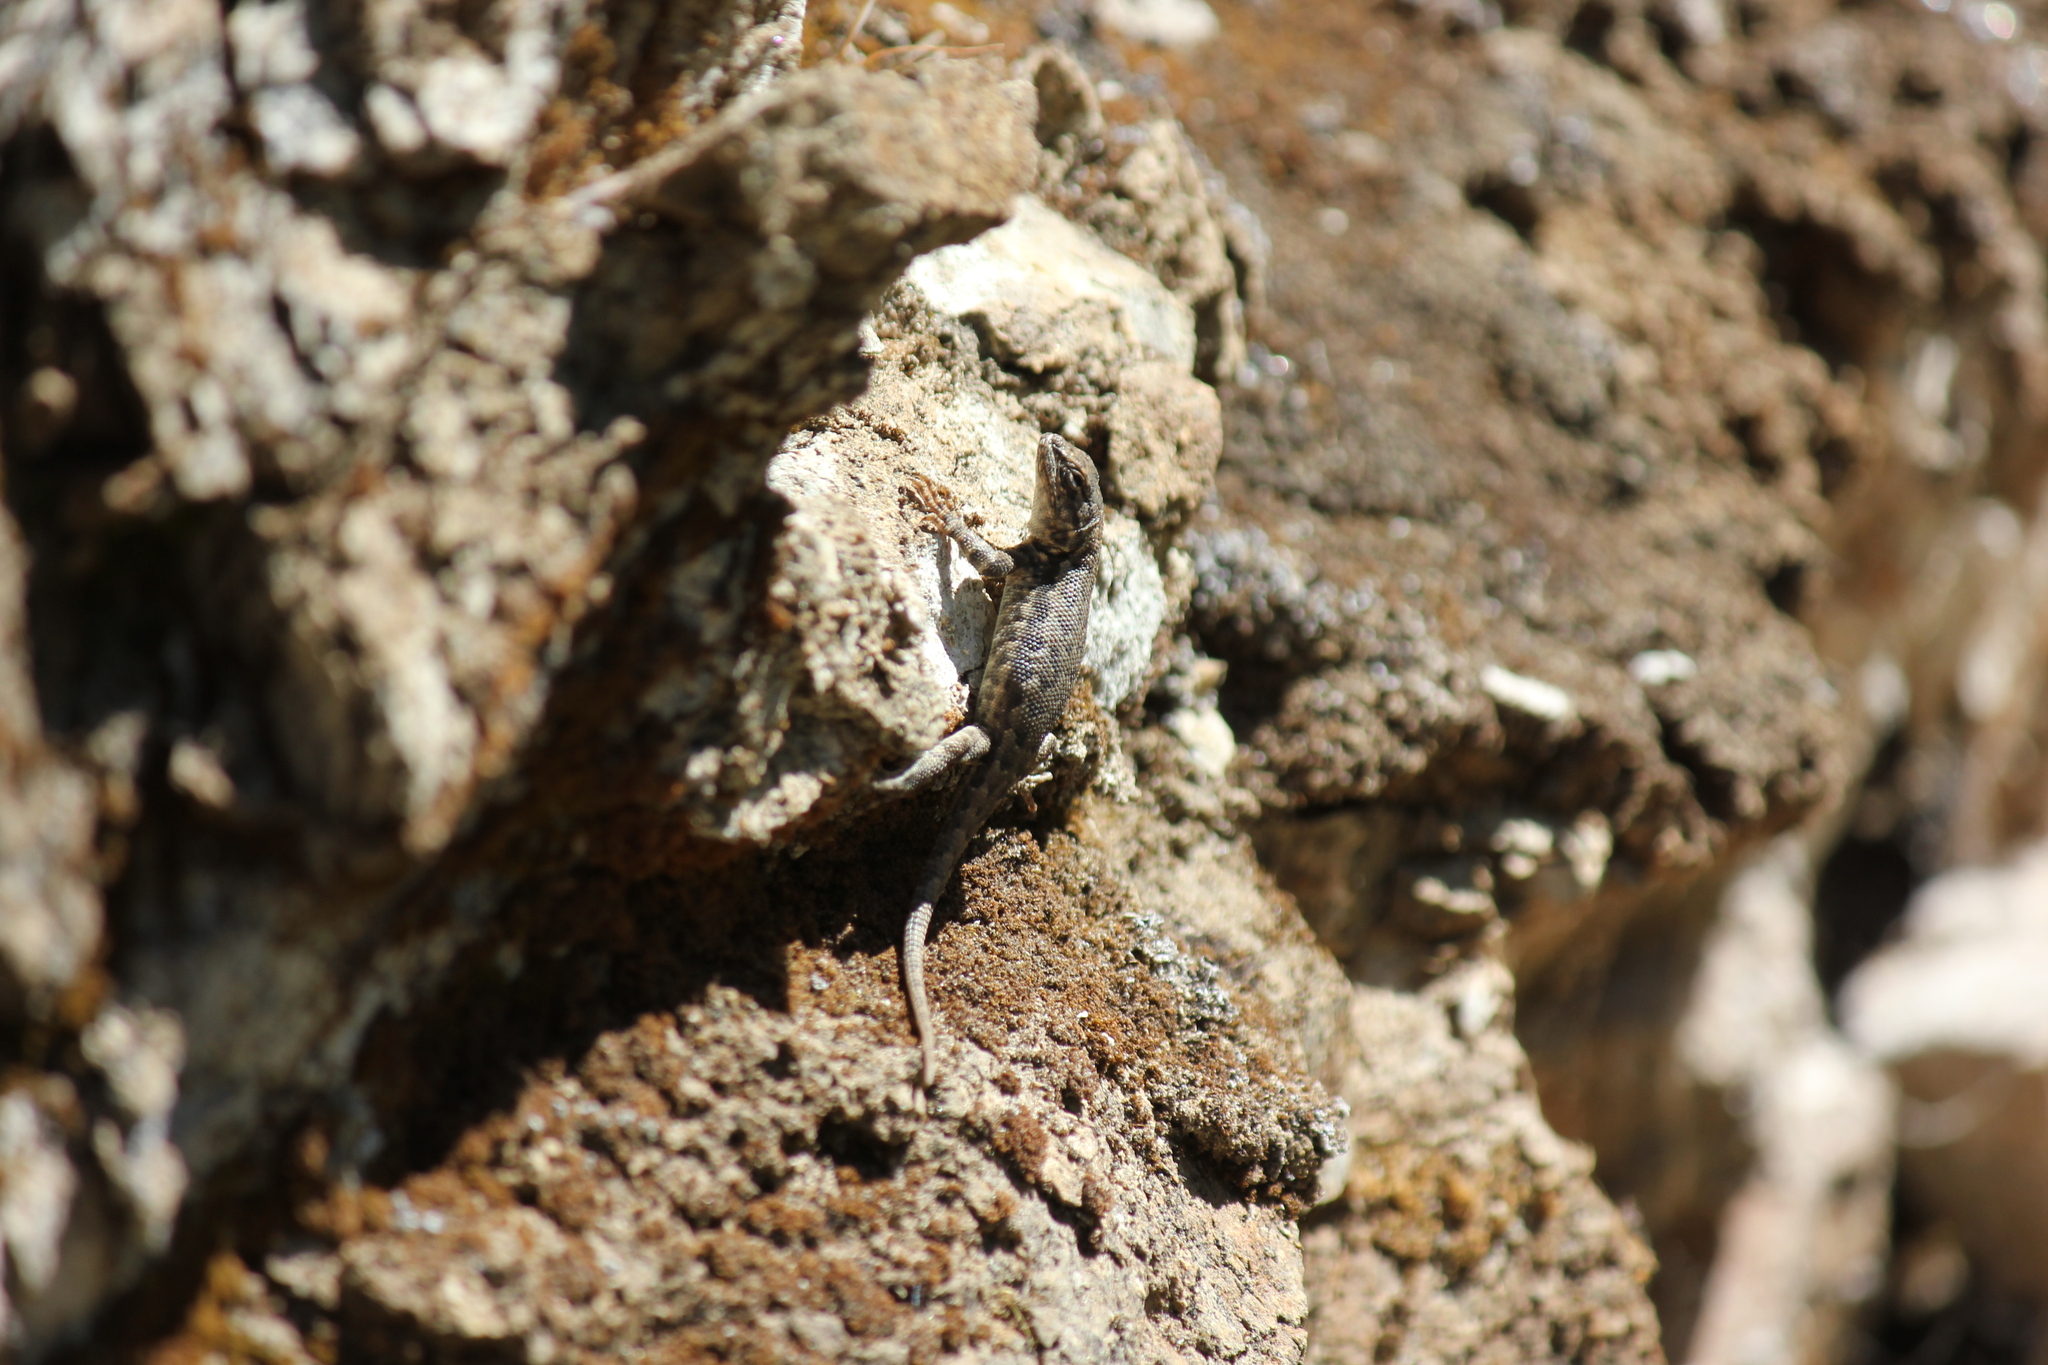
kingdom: Animalia
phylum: Chordata
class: Squamata
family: Phrynosomatidae
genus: Sceloporus
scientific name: Sceloporus graciosus
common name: Sagebrush lizard
